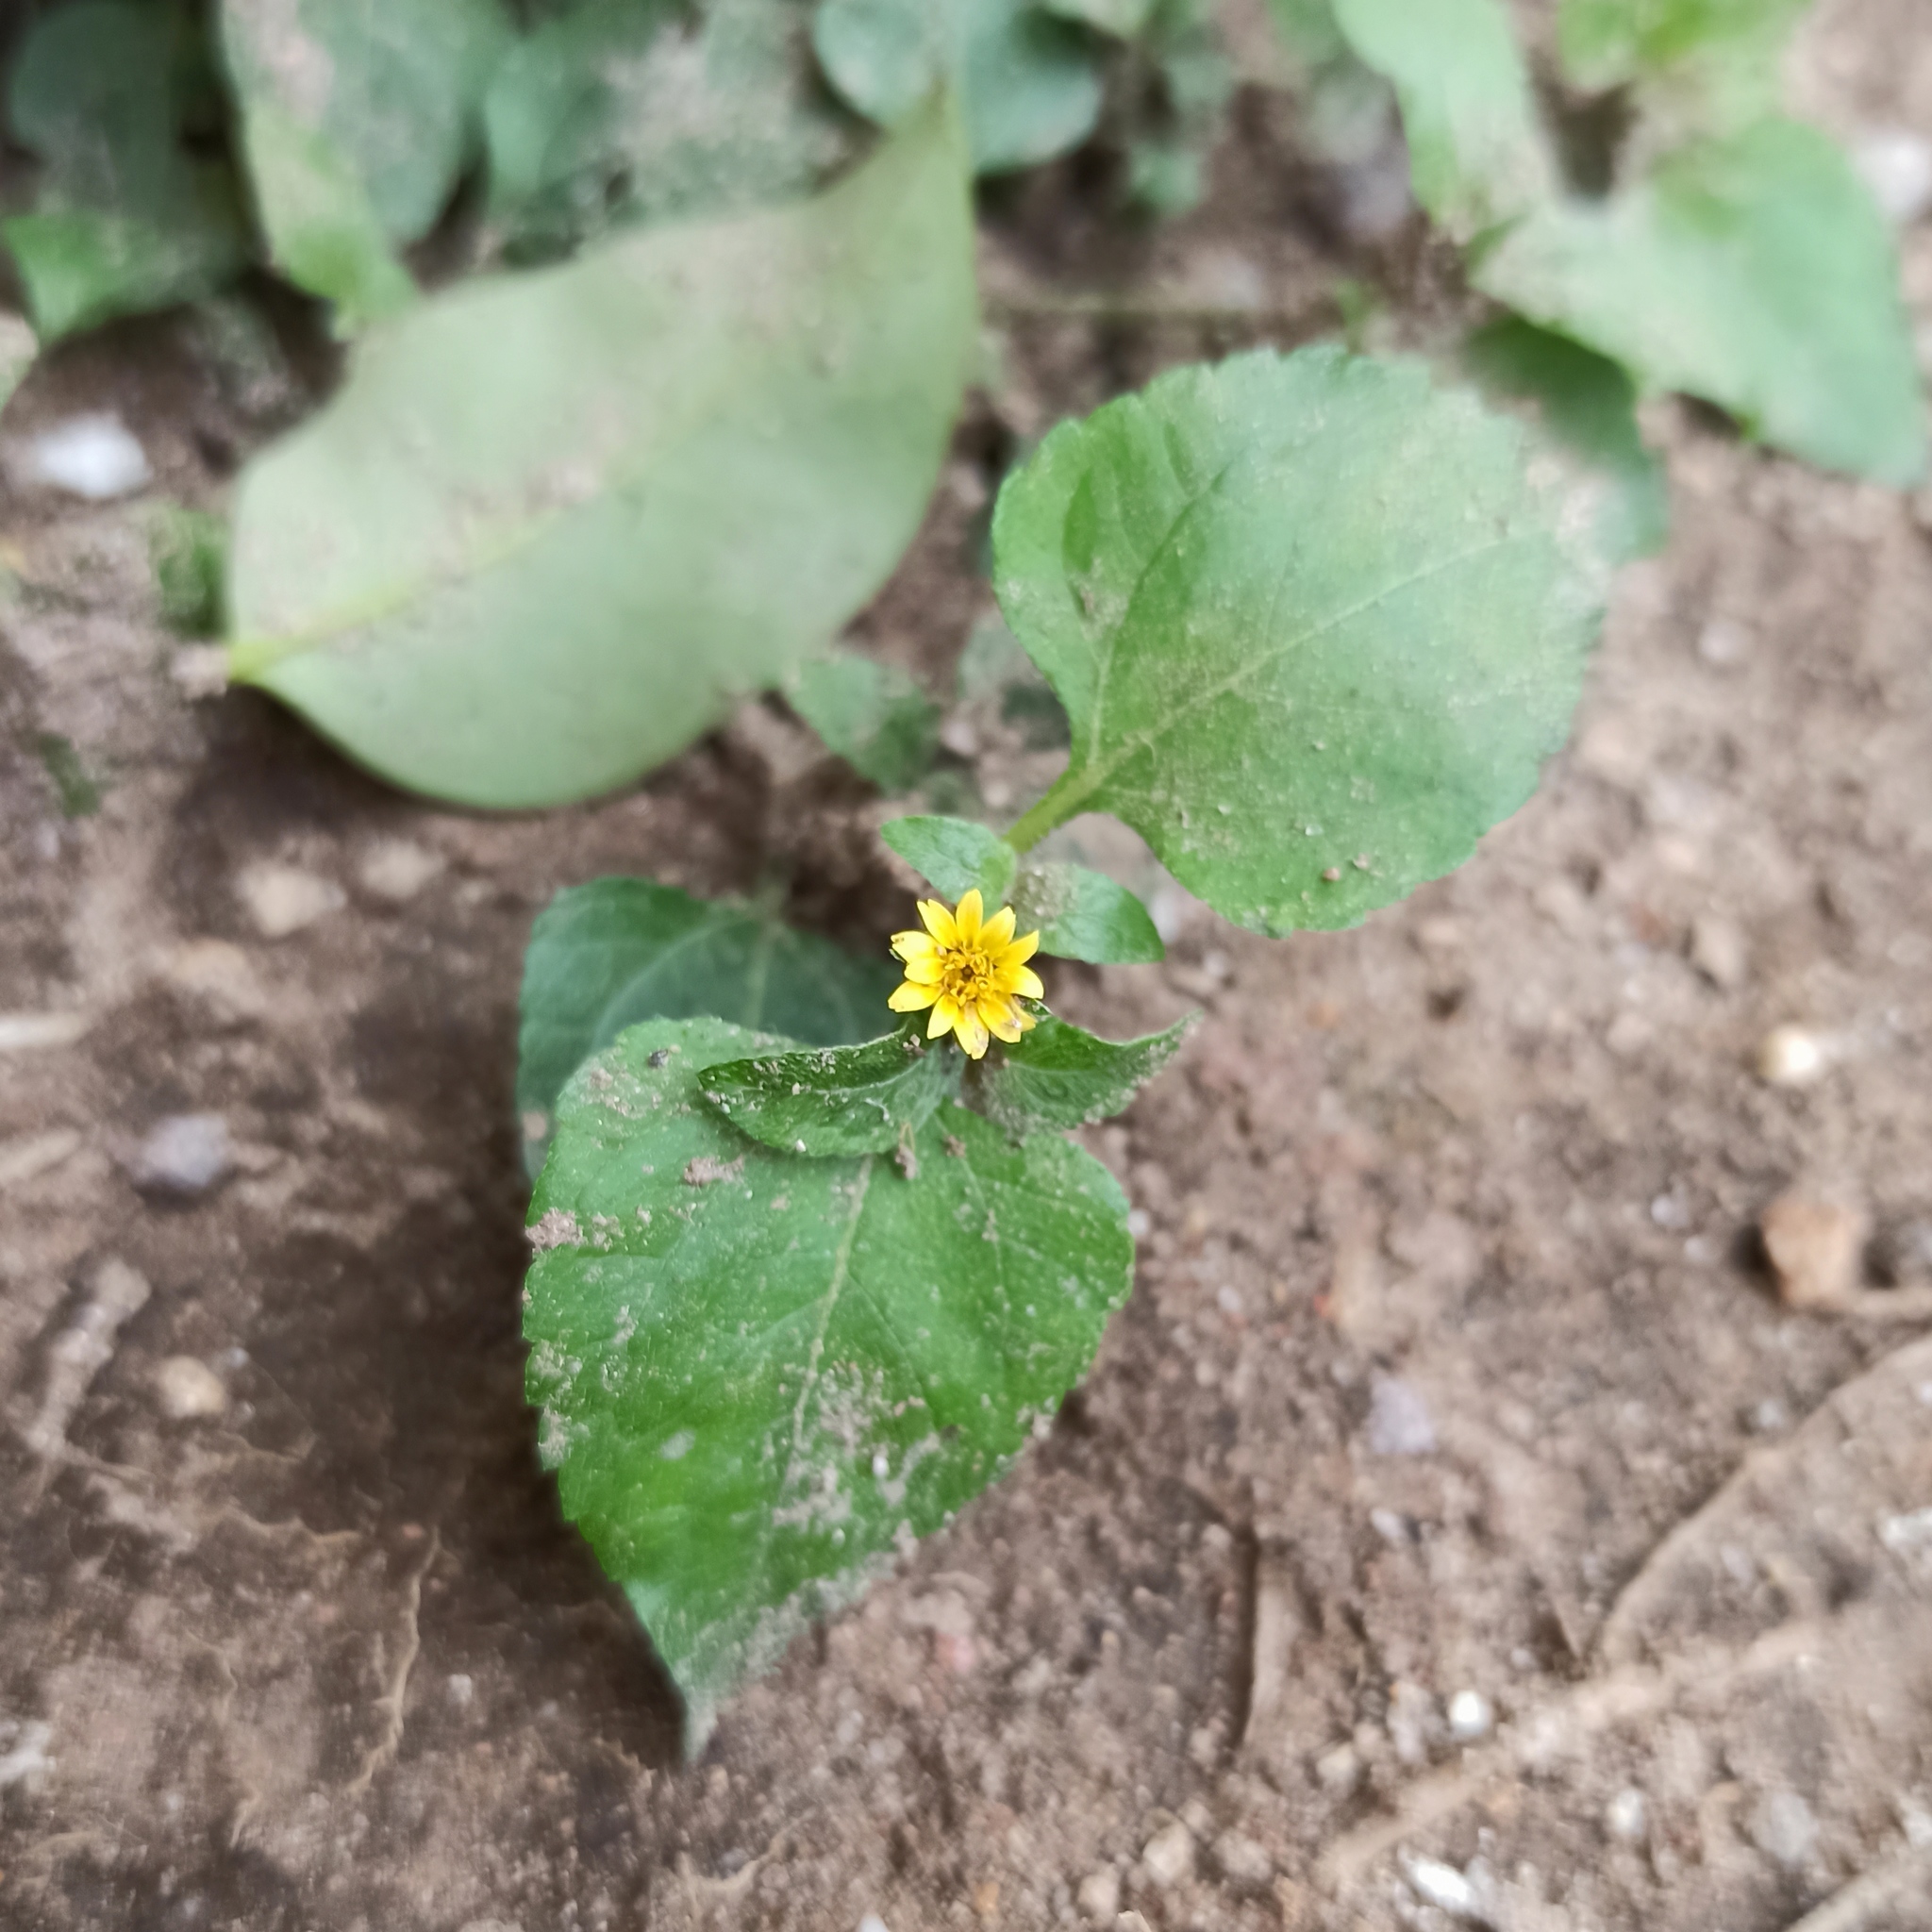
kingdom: Plantae
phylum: Tracheophyta
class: Magnoliopsida
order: Asterales
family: Asteraceae
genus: Calyptocarpus
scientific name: Calyptocarpus vialis
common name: Straggler daisy
